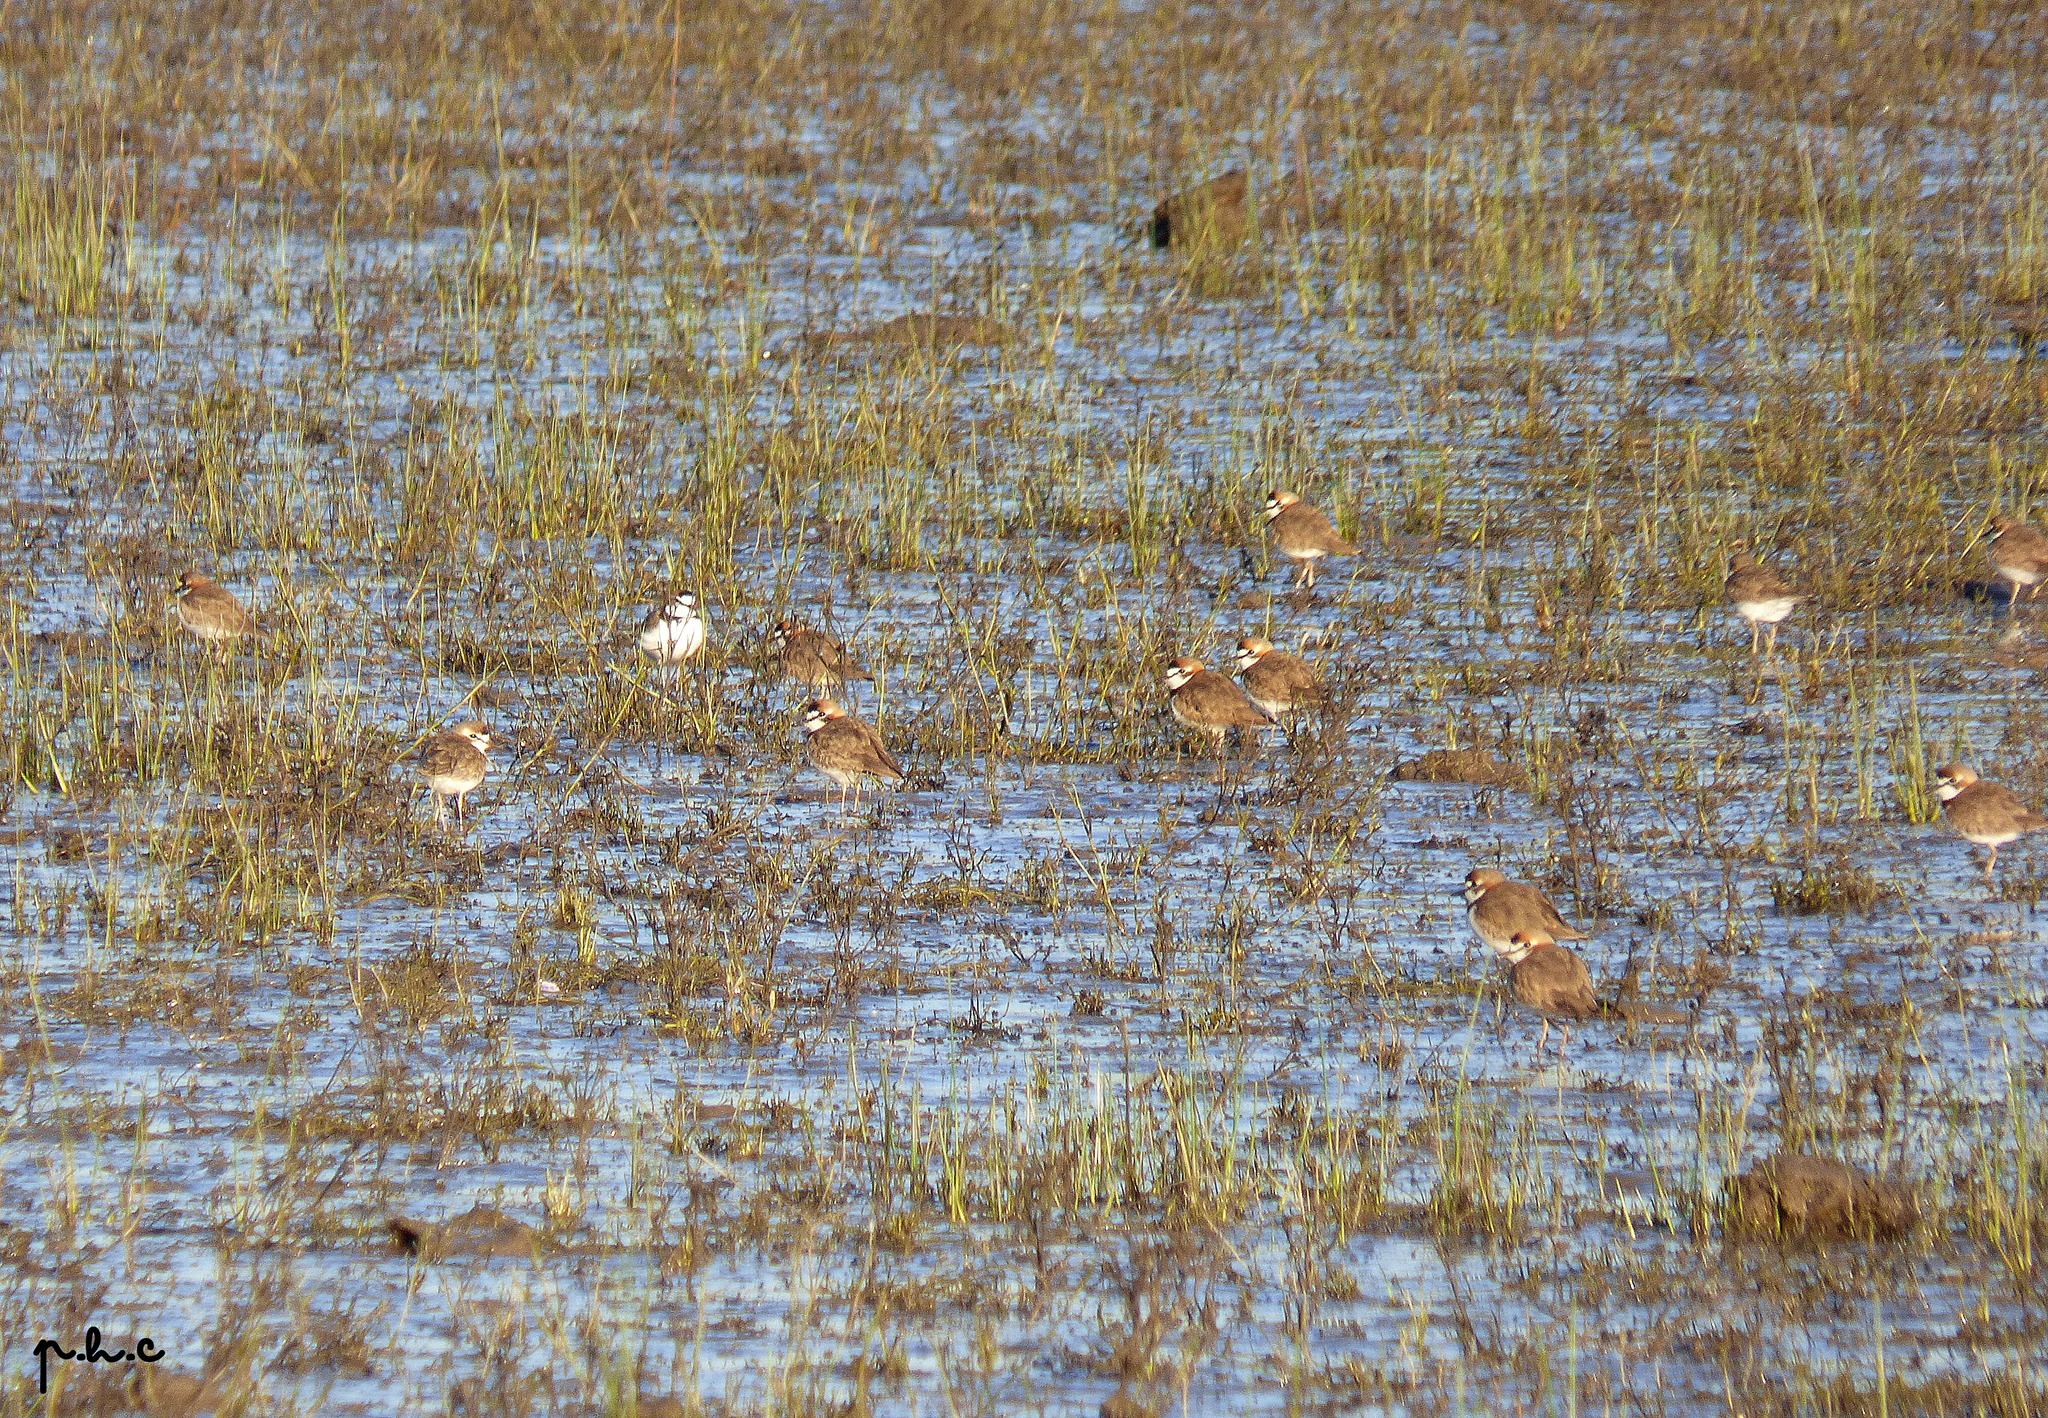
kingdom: Animalia
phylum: Chordata
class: Aves
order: Charadriiformes
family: Charadriidae
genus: Anarhynchus
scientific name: Anarhynchus
